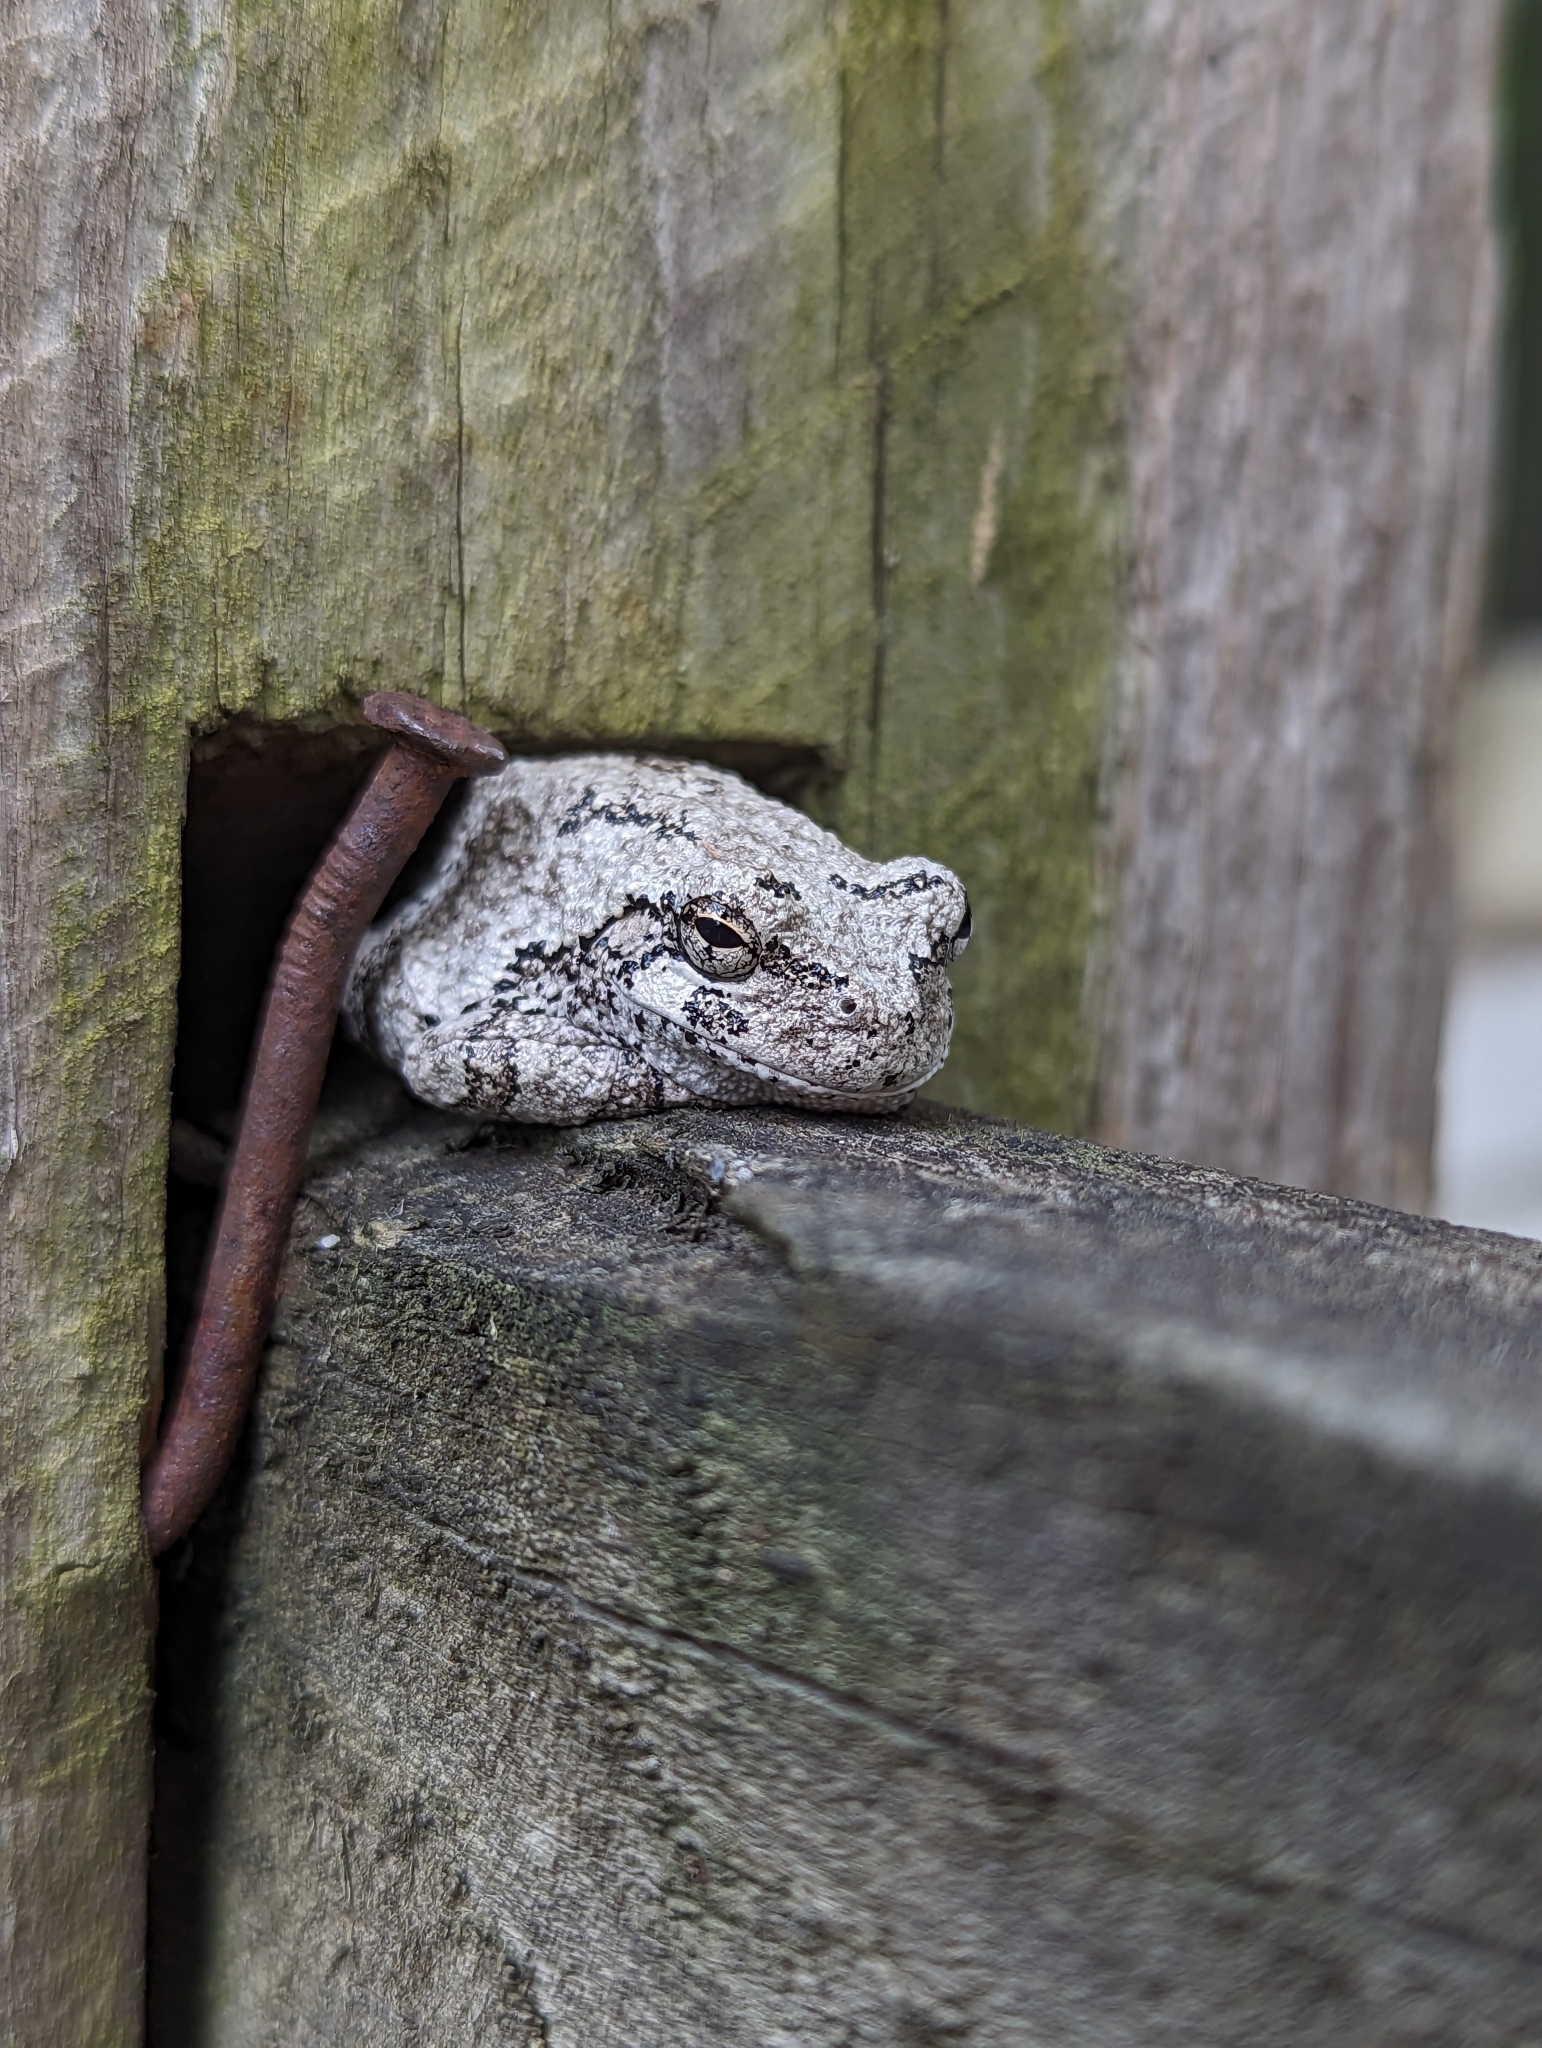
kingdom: Animalia
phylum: Chordata
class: Amphibia
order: Anura
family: Hylidae
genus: Dryophytes
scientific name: Dryophytes versicolor
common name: Gray treefrog
